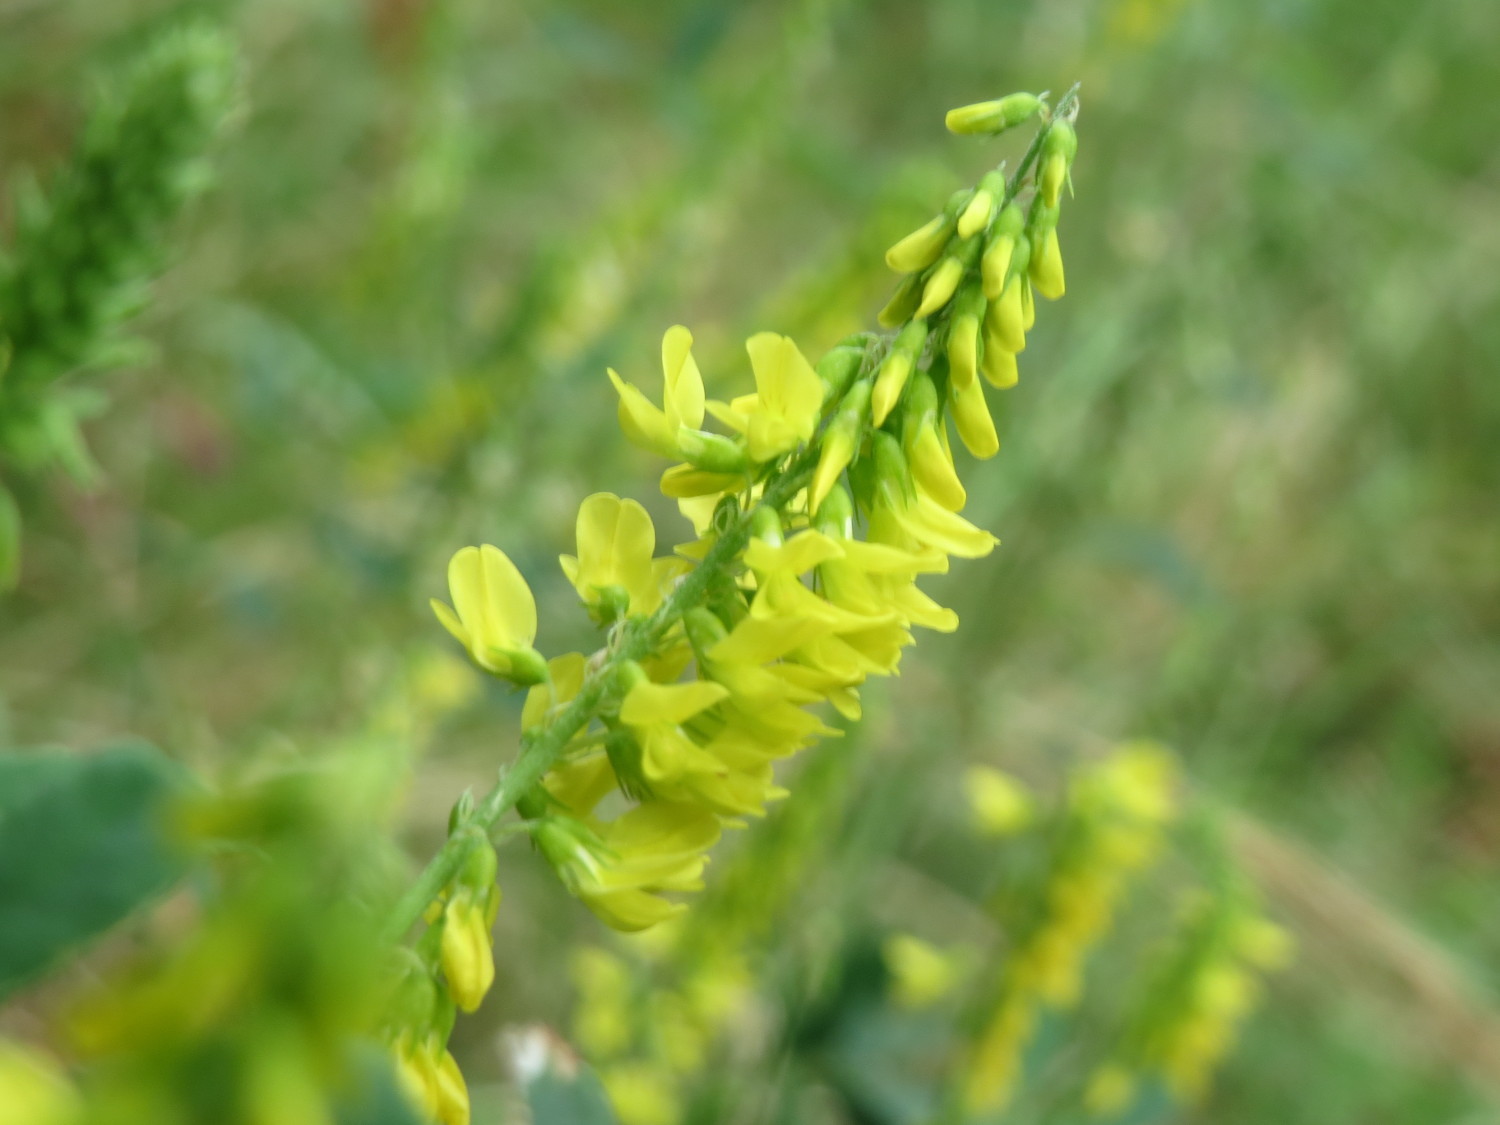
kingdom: Plantae
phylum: Tracheophyta
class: Magnoliopsida
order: Fabales
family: Fabaceae
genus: Melilotus
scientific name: Melilotus officinalis
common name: Sweetclover
